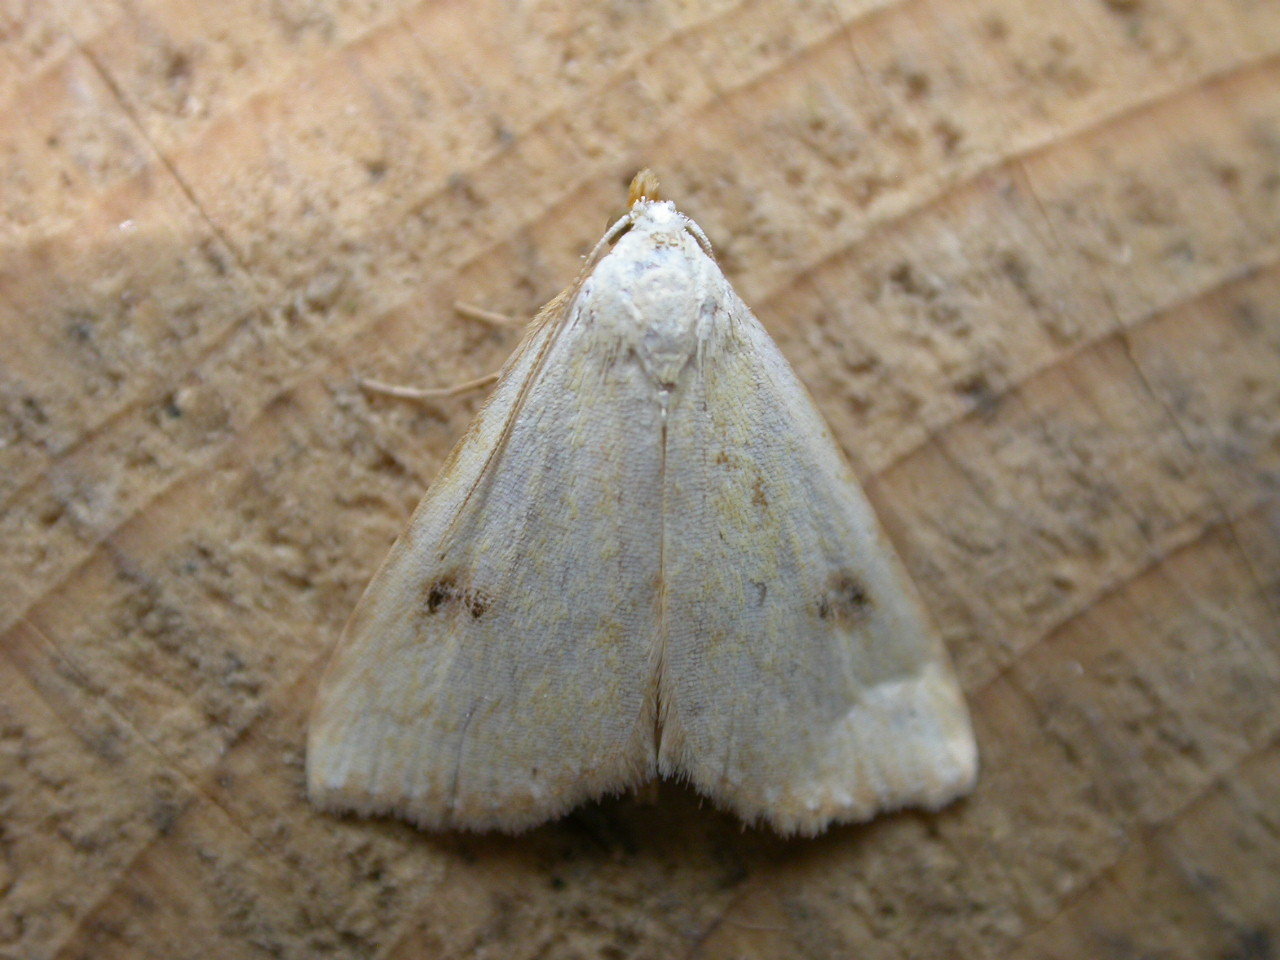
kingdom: Animalia
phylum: Arthropoda
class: Insecta
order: Lepidoptera
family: Erebidae
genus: Rivula
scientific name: Rivula sericealis
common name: Straw dot
